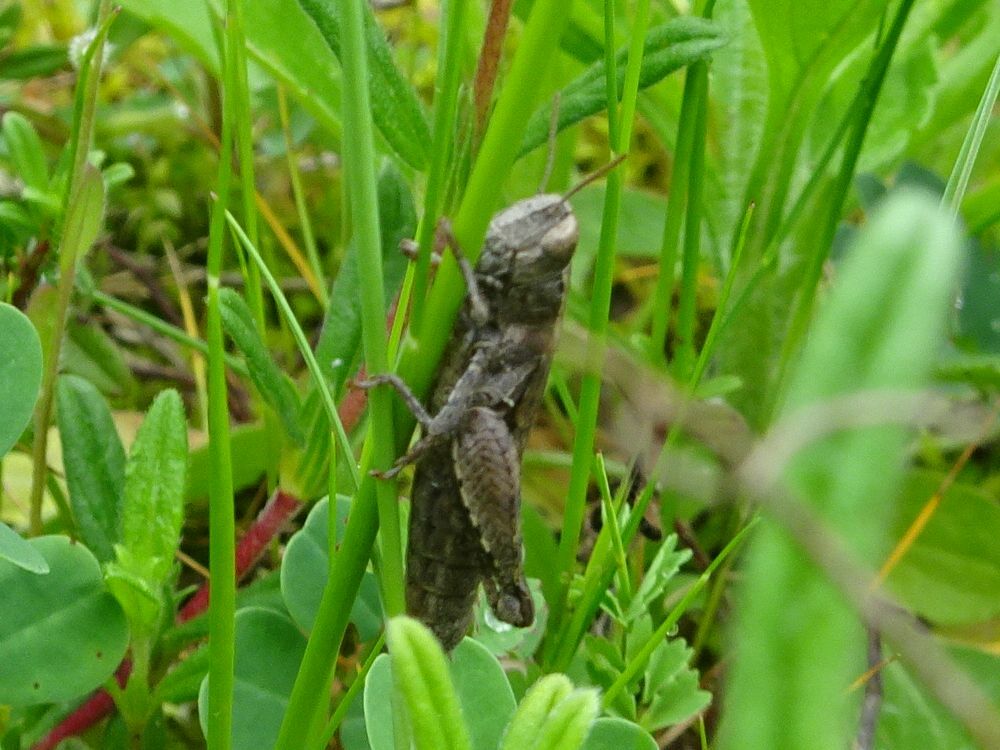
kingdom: Animalia
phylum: Arthropoda
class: Insecta
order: Orthoptera
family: Acrididae
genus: Pezotettix
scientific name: Pezotettix giornae
